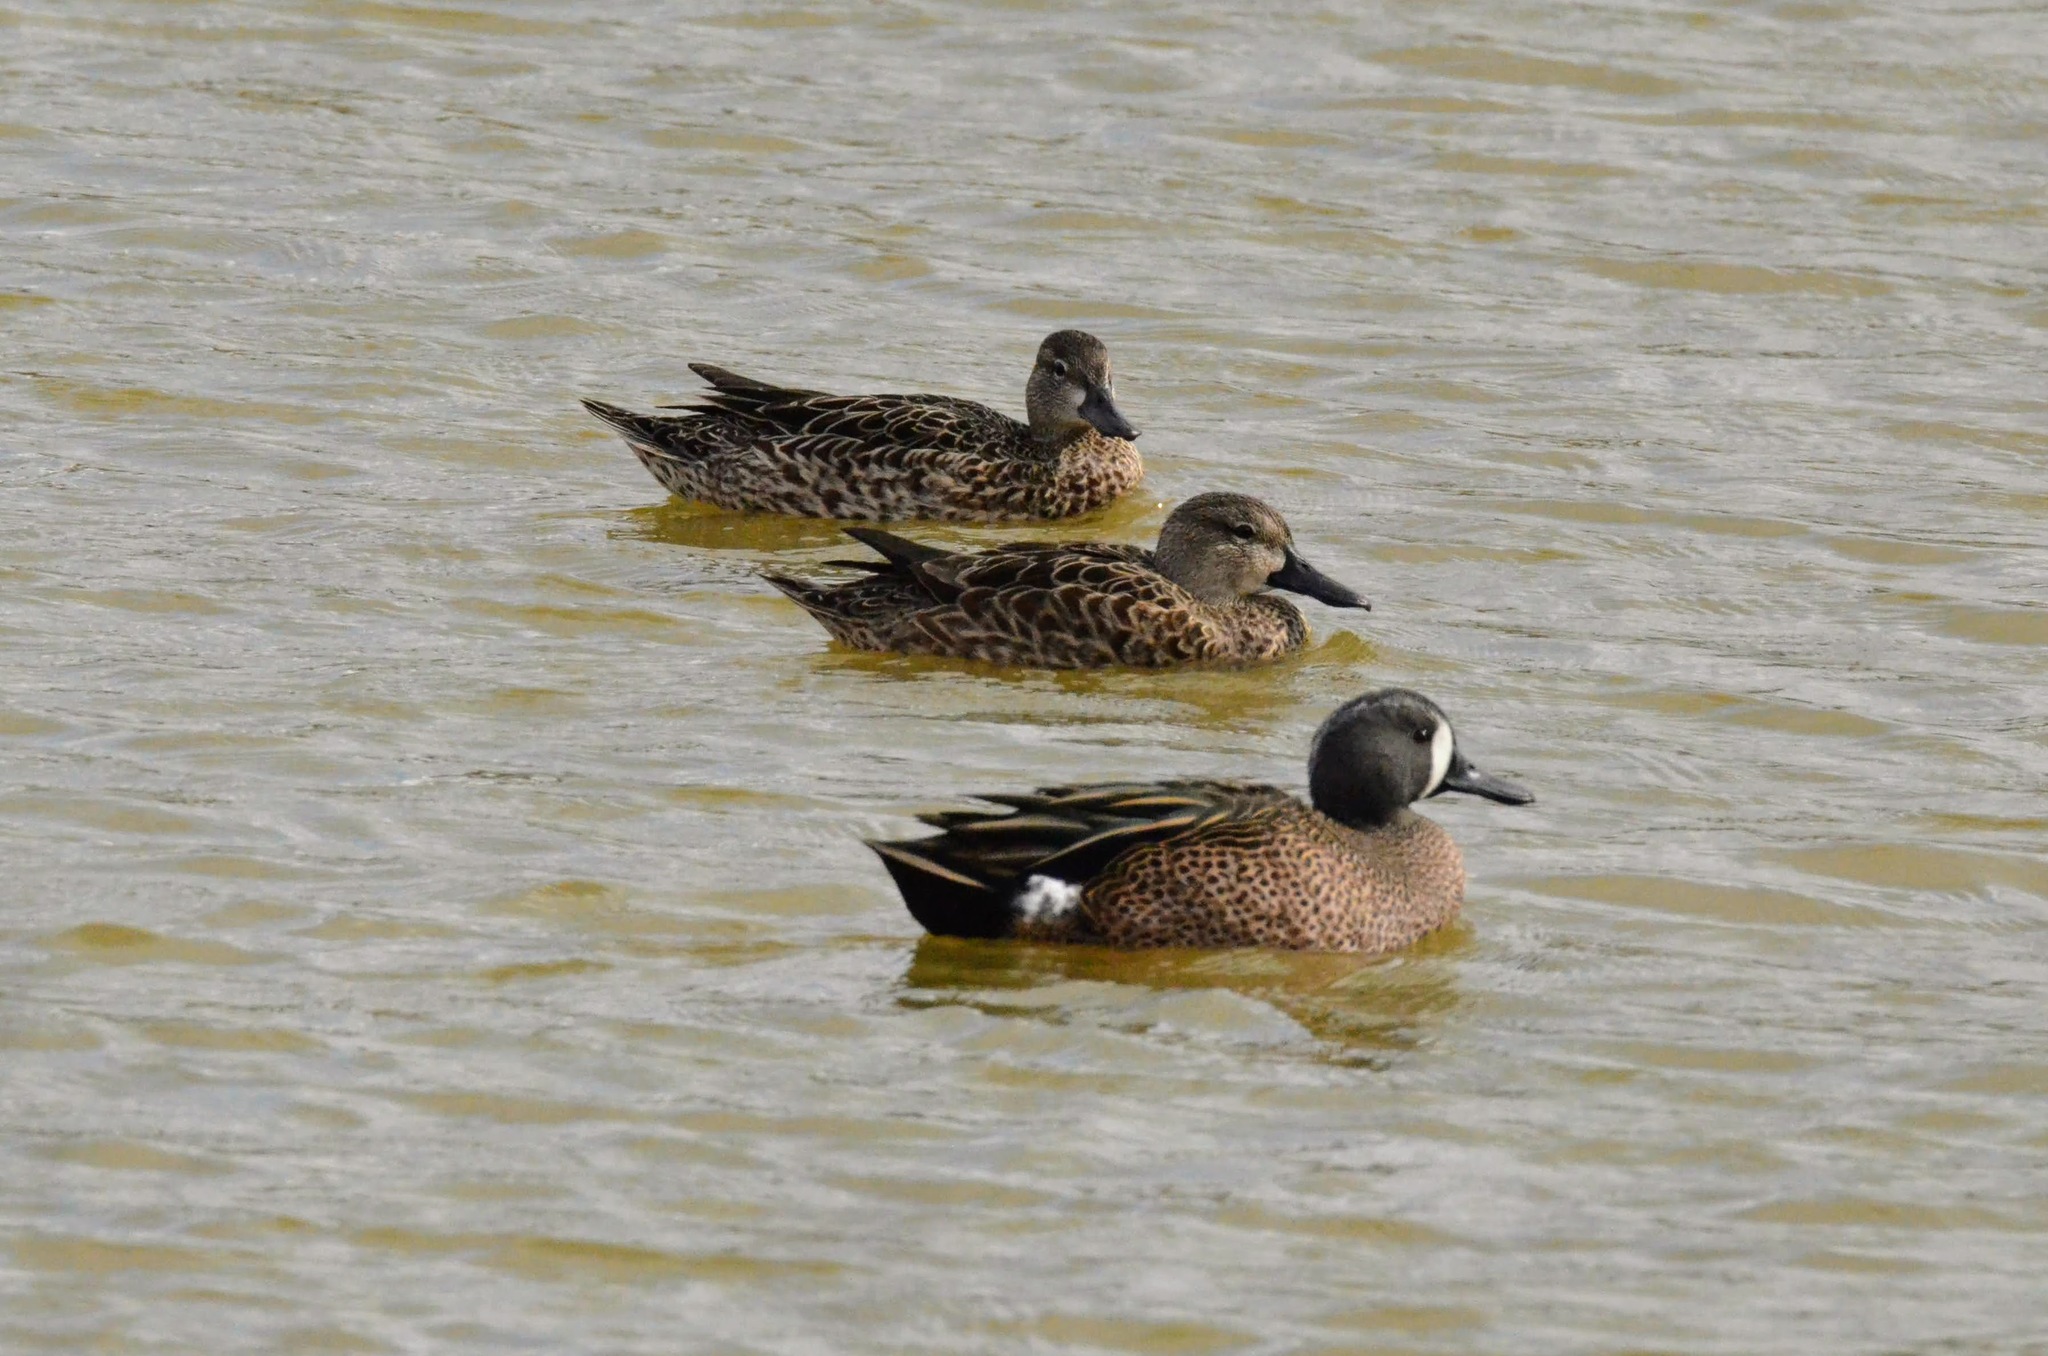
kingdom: Animalia
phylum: Chordata
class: Aves
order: Anseriformes
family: Anatidae
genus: Spatula
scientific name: Spatula discors
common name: Blue-winged teal
